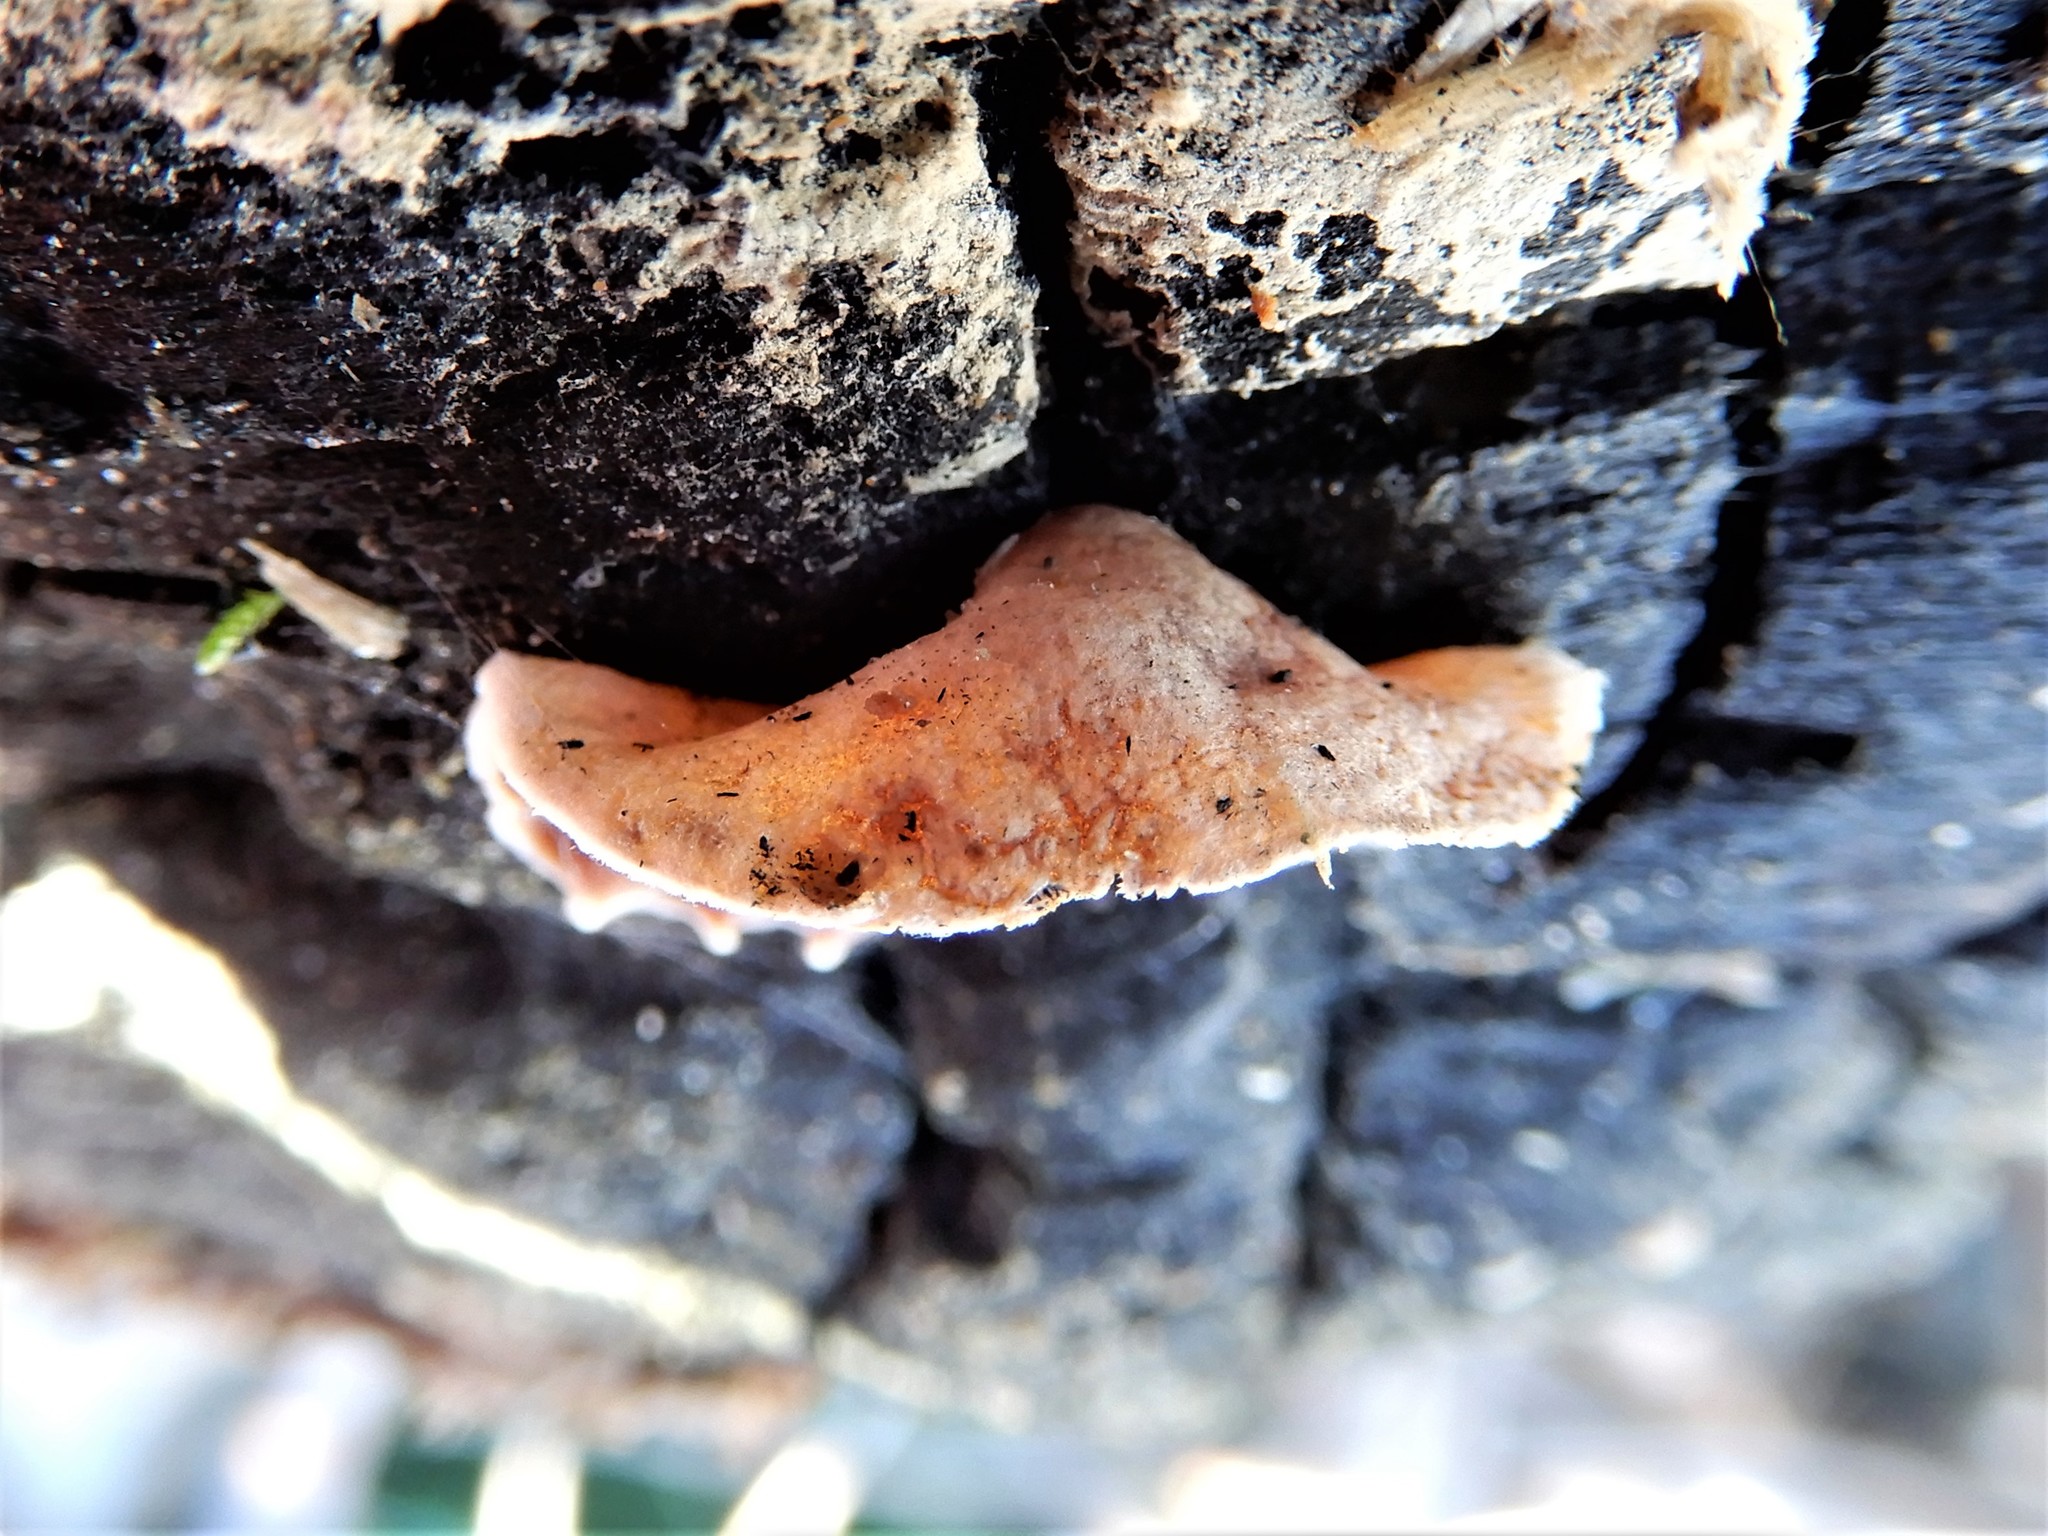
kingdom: Fungi
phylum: Basidiomycota
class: Agaricomycetes
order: Agaricales
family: Schizophyllaceae
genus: Schizophyllum
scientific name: Schizophyllum amplum
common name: Poplar bells
